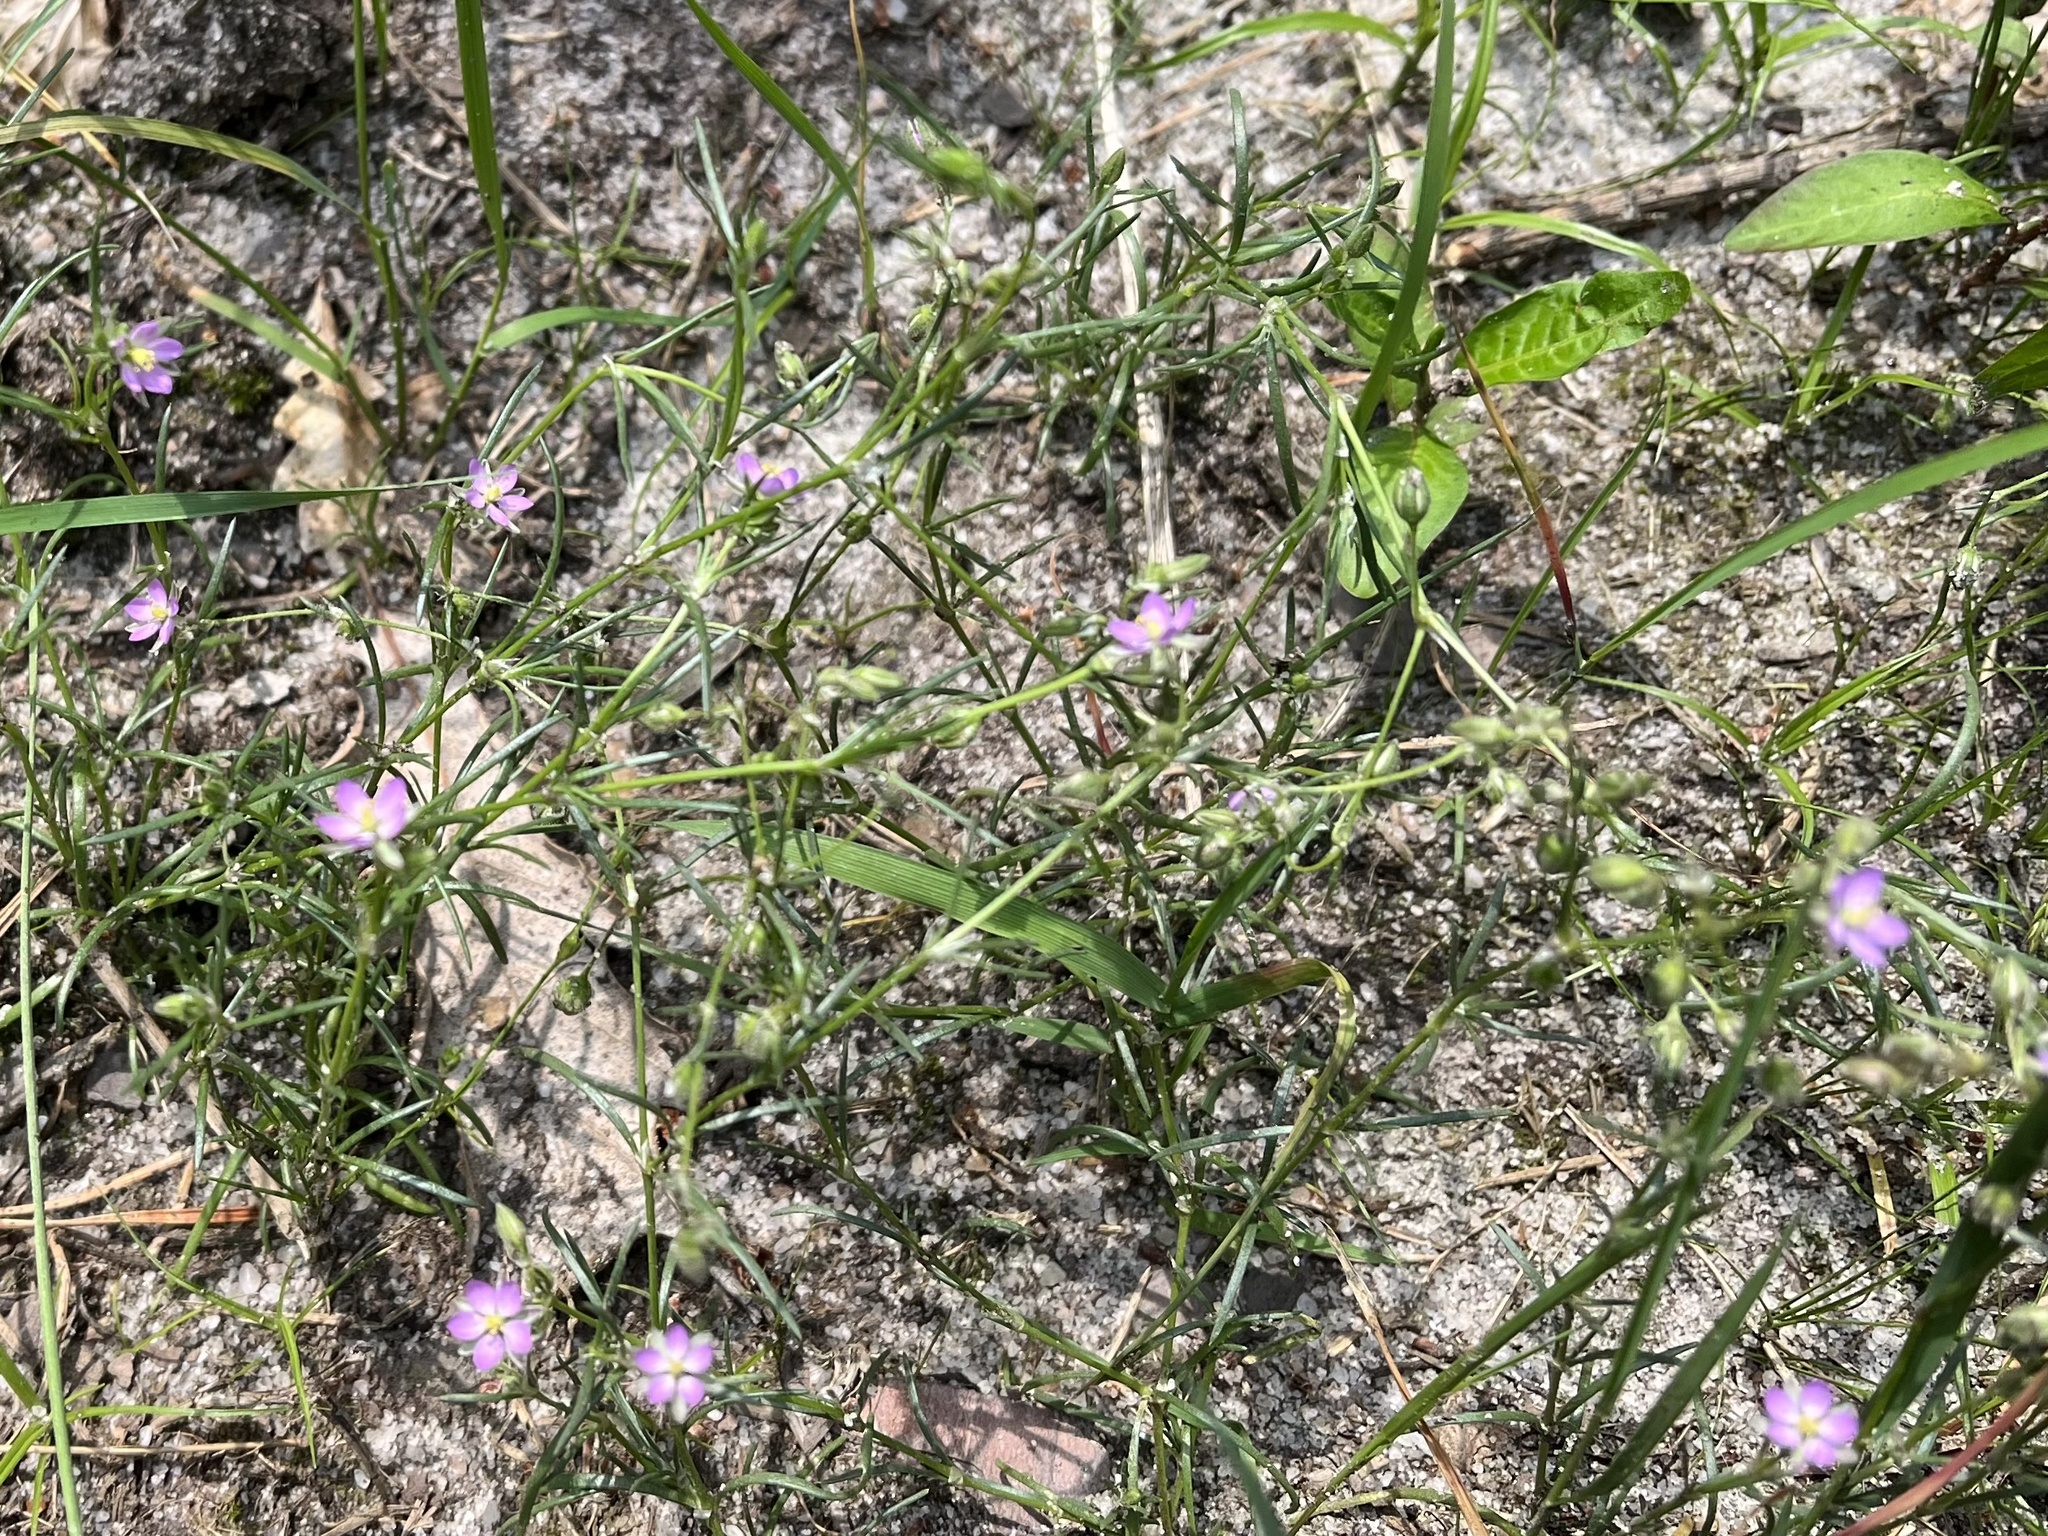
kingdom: Plantae
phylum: Tracheophyta
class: Magnoliopsida
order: Caryophyllales
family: Caryophyllaceae
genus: Spergularia
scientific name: Spergularia rubra
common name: Red sand-spurrey
